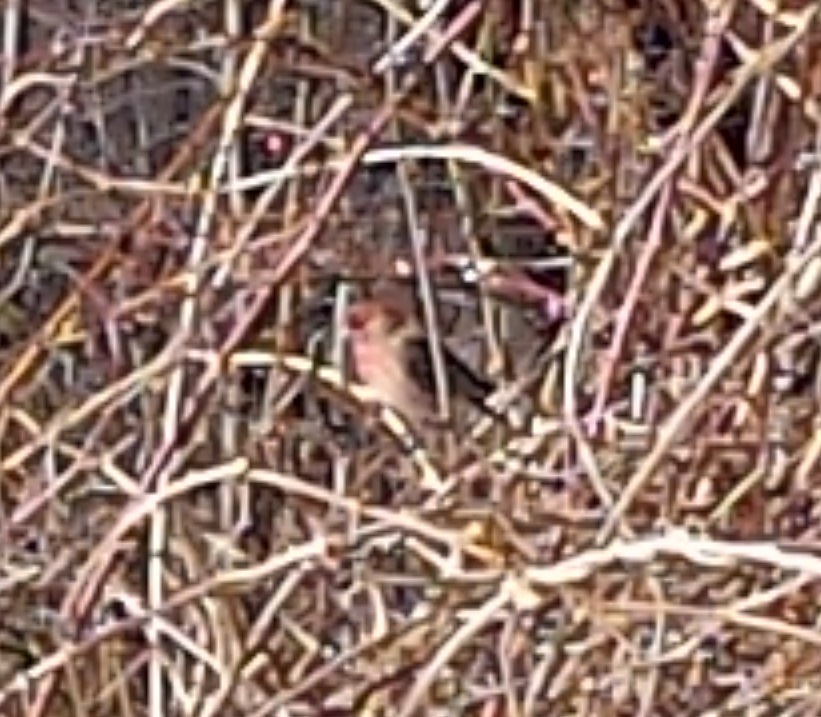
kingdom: Animalia
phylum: Chordata
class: Aves
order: Passeriformes
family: Fringillidae
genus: Haemorhous
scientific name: Haemorhous mexicanus
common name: House finch
